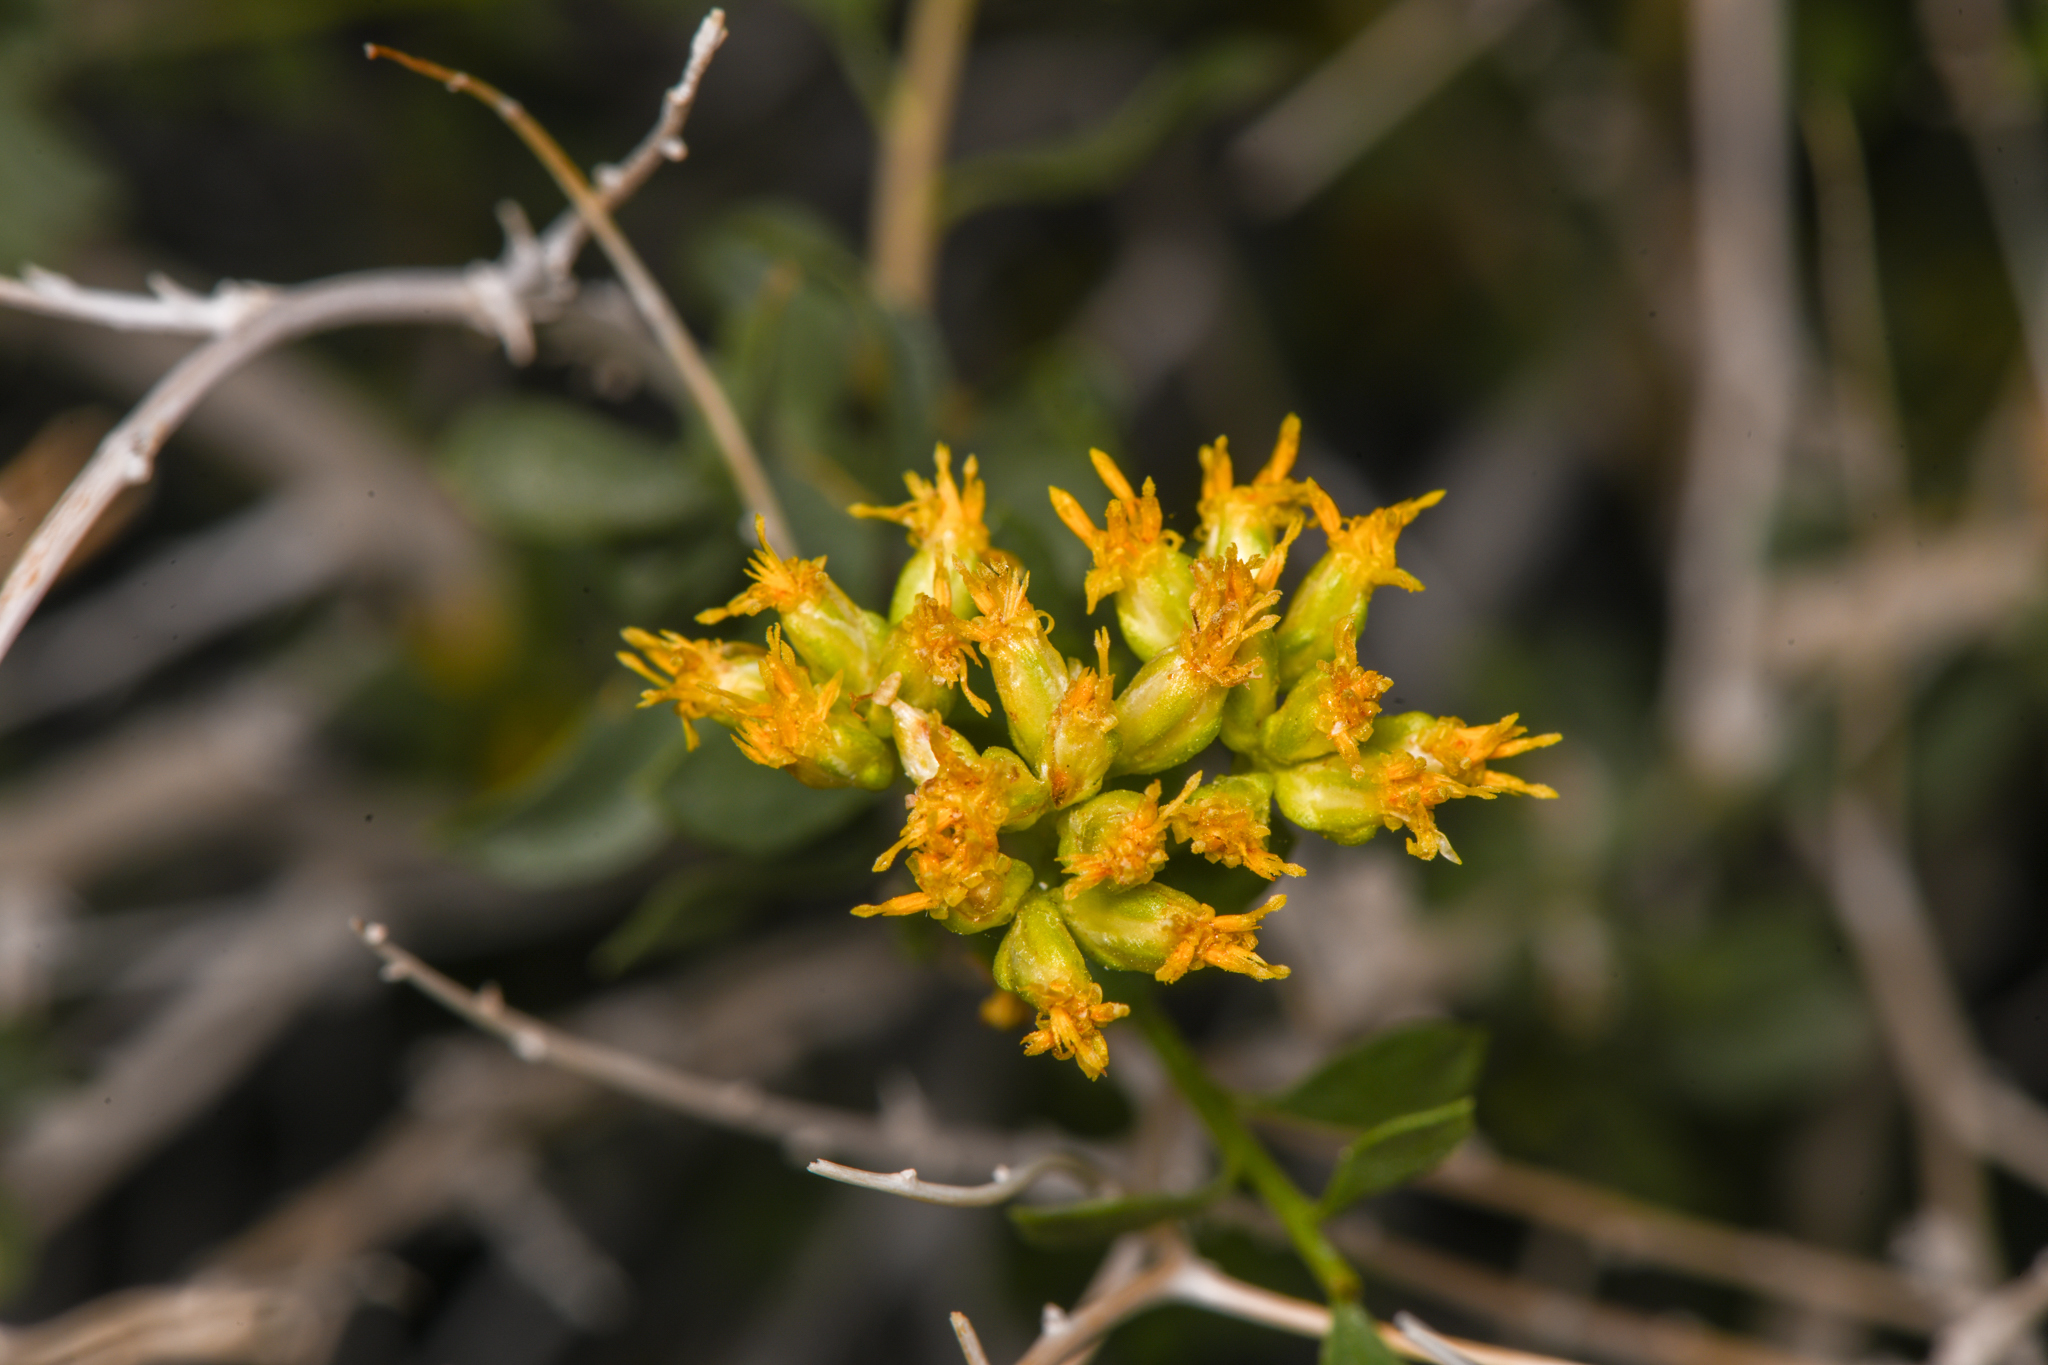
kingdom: Plantae
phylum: Tracheophyta
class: Magnoliopsida
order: Asterales
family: Asteraceae
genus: Amphipappus
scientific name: Amphipappus fremontii
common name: Fremont's chaffbush
